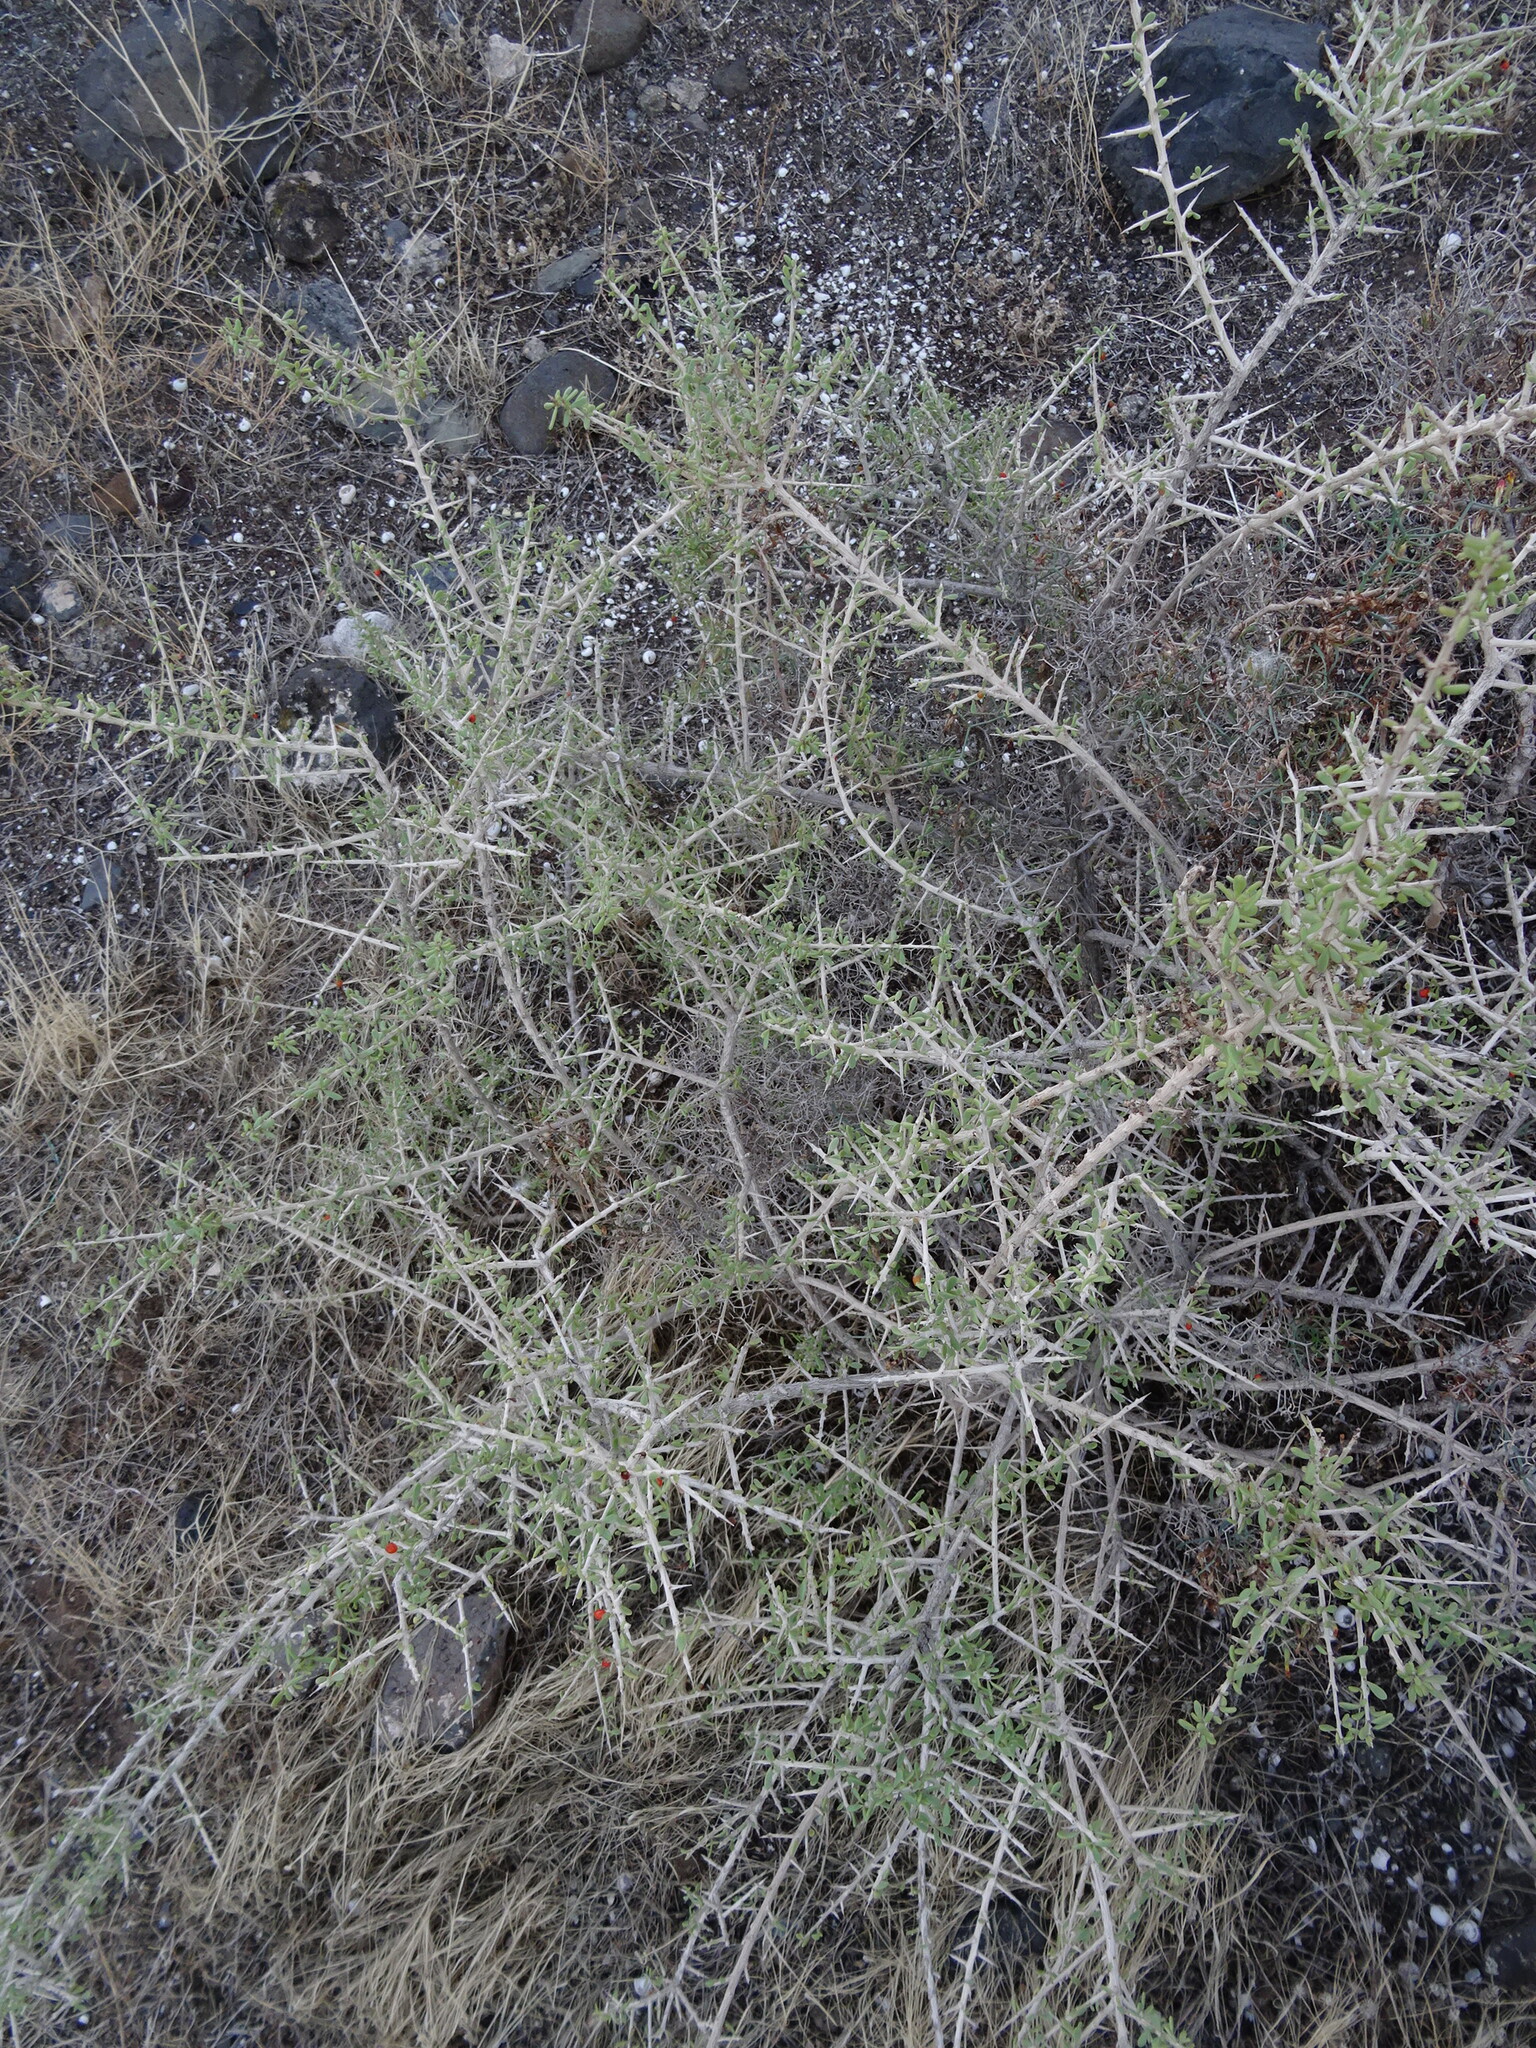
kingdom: Plantae
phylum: Tracheophyta
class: Magnoliopsida
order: Solanales
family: Solanaceae
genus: Lycium
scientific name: Lycium intricatum
